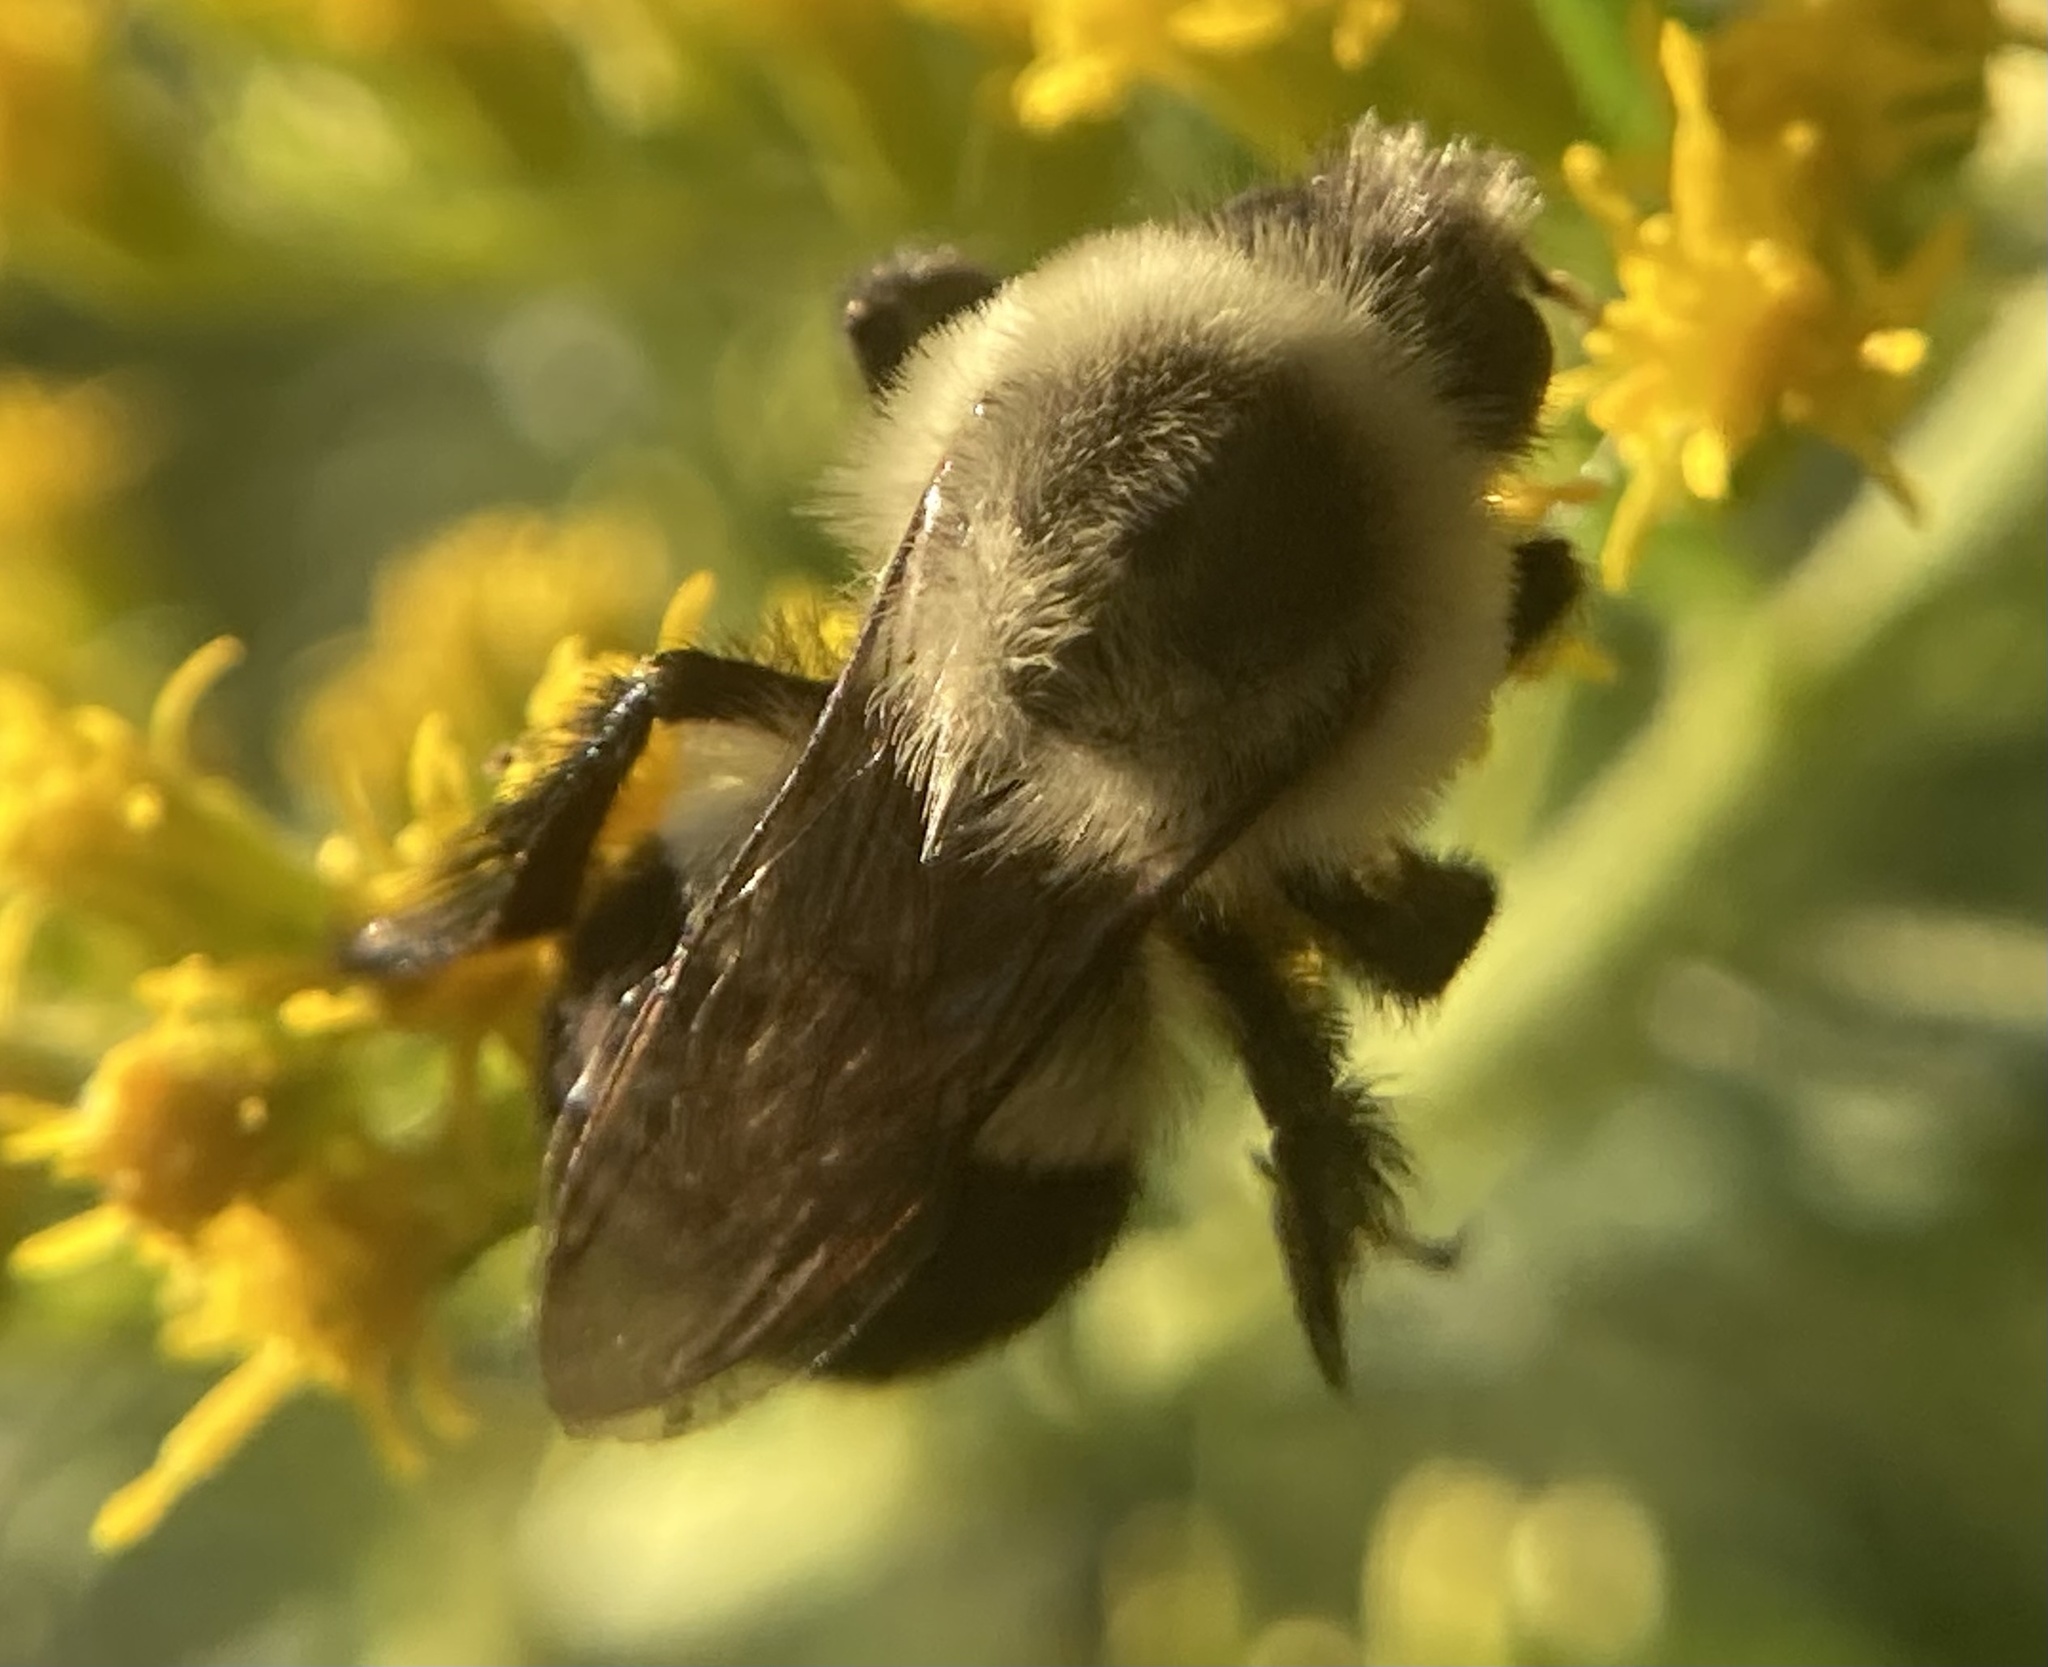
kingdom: Animalia
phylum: Arthropoda
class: Insecta
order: Hymenoptera
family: Apidae
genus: Bombus
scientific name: Bombus impatiens
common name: Common eastern bumble bee
